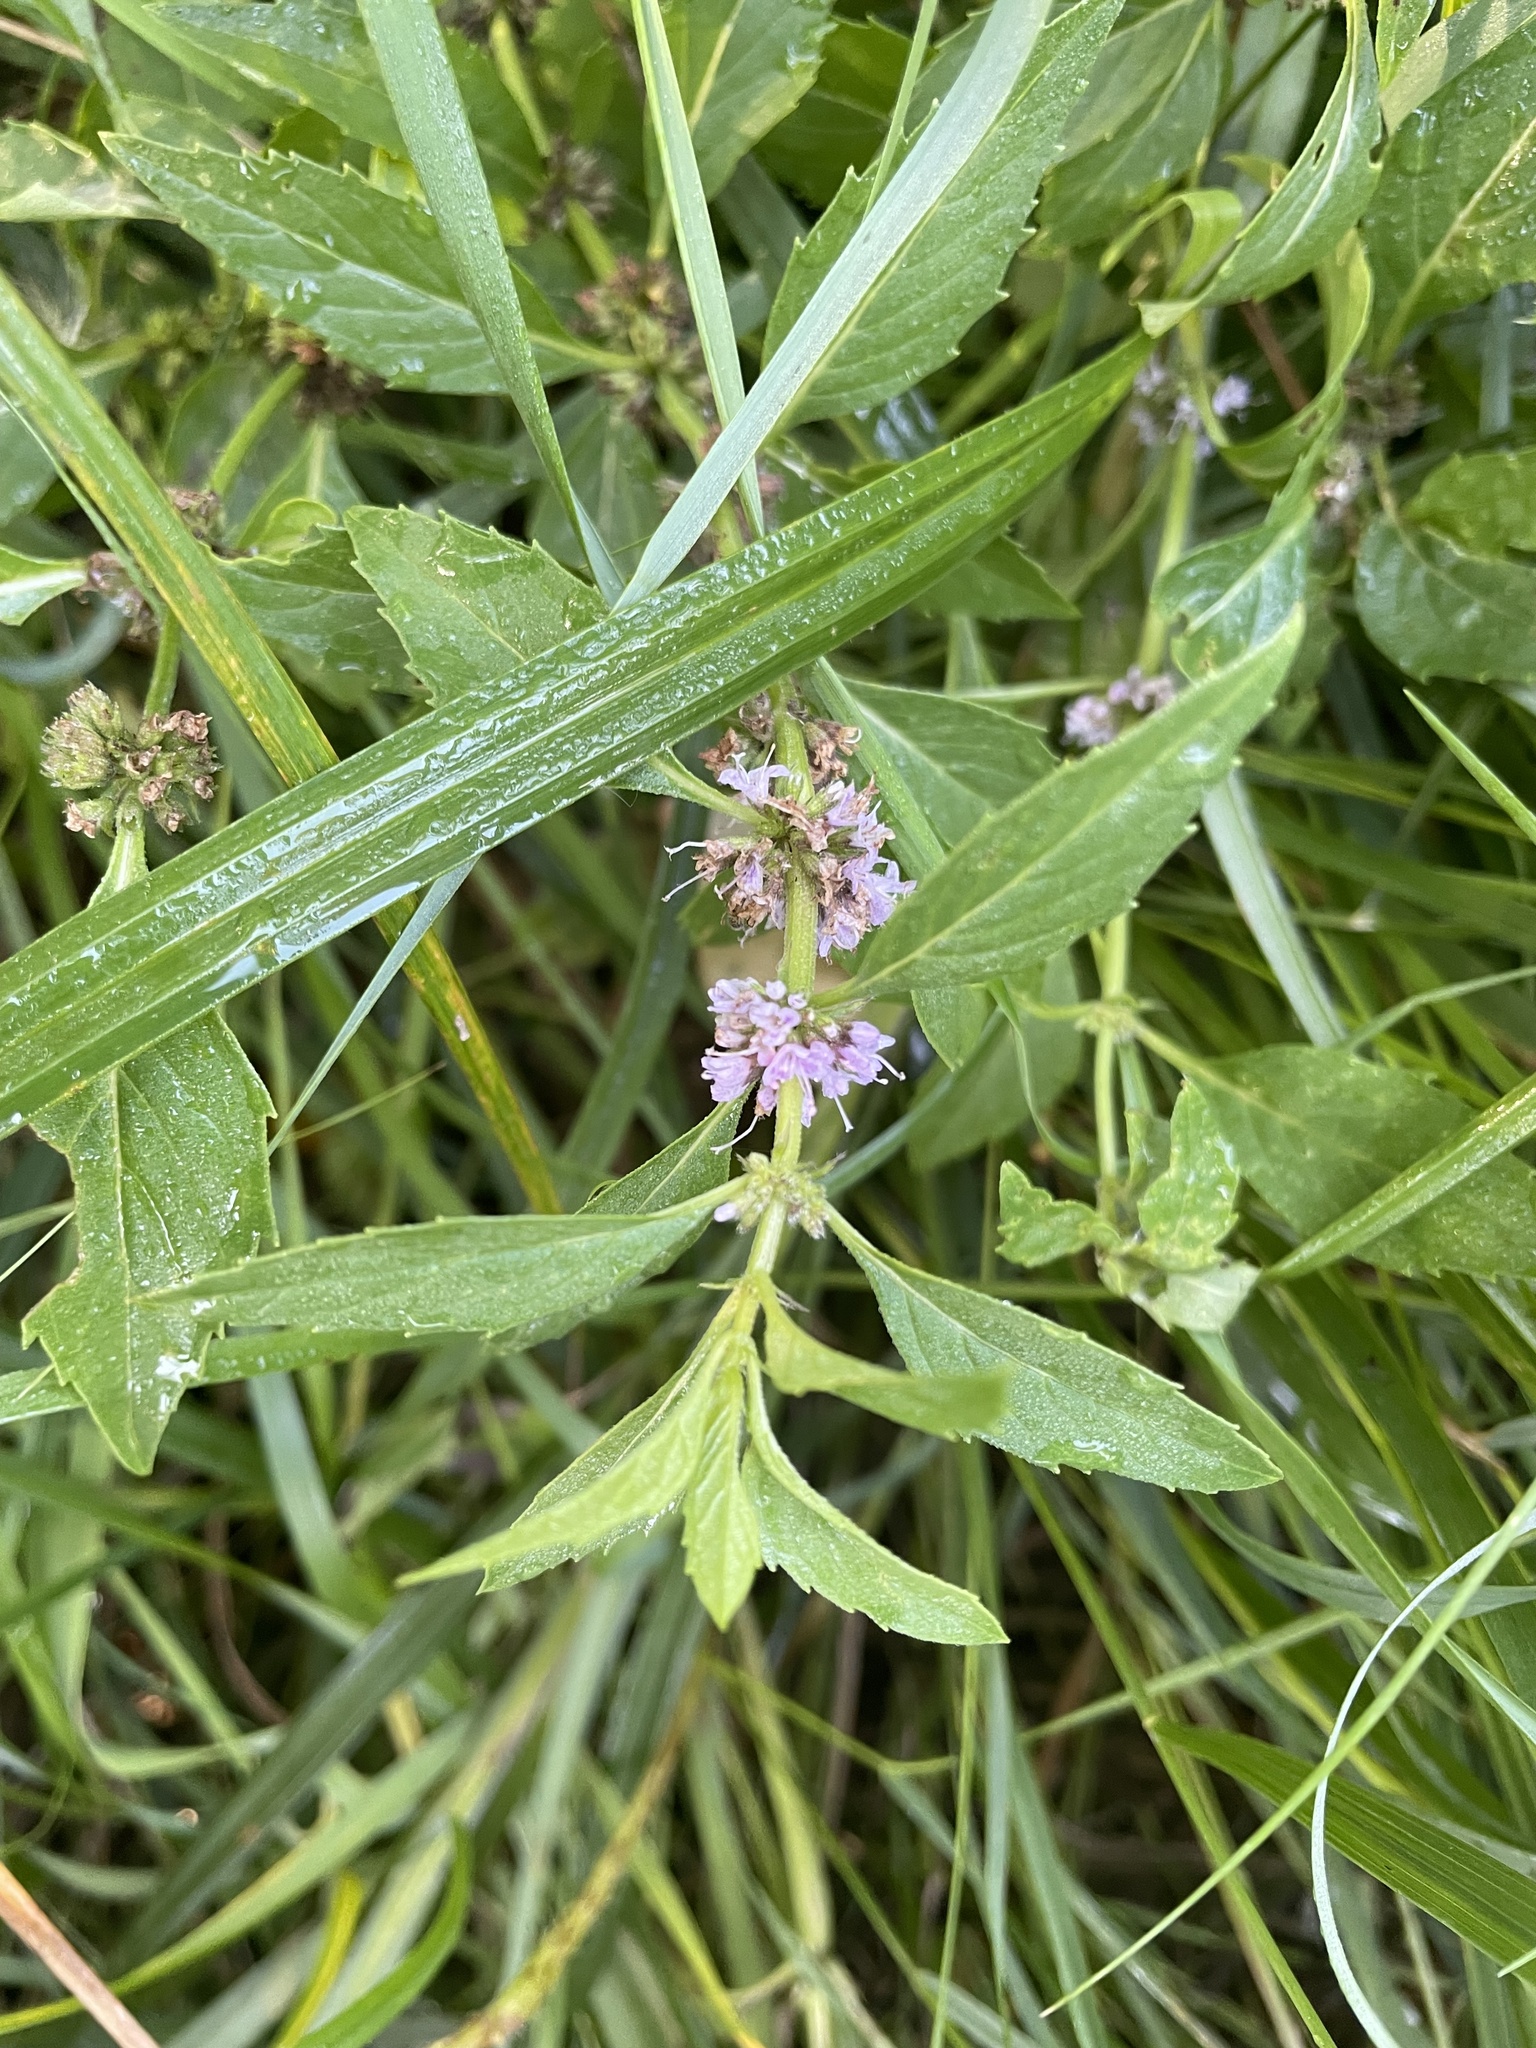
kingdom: Plantae
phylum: Tracheophyta
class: Magnoliopsida
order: Lamiales
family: Lamiaceae
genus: Mentha
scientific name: Mentha canadensis
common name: American corn mint
